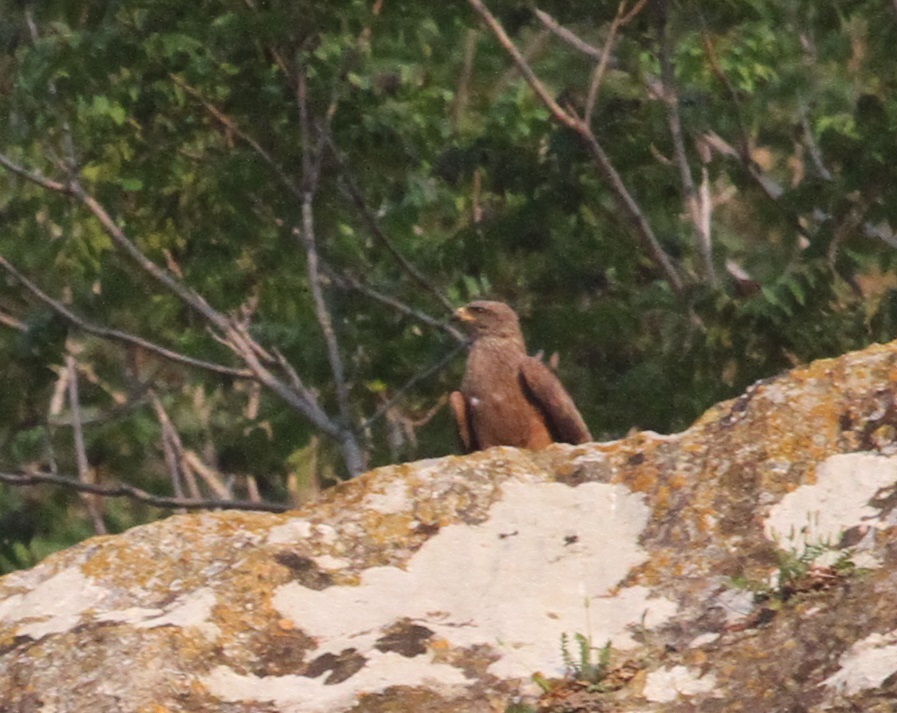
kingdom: Animalia
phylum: Chordata
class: Aves
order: Accipitriformes
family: Accipitridae
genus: Milvus
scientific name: Milvus migrans
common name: Black kite
